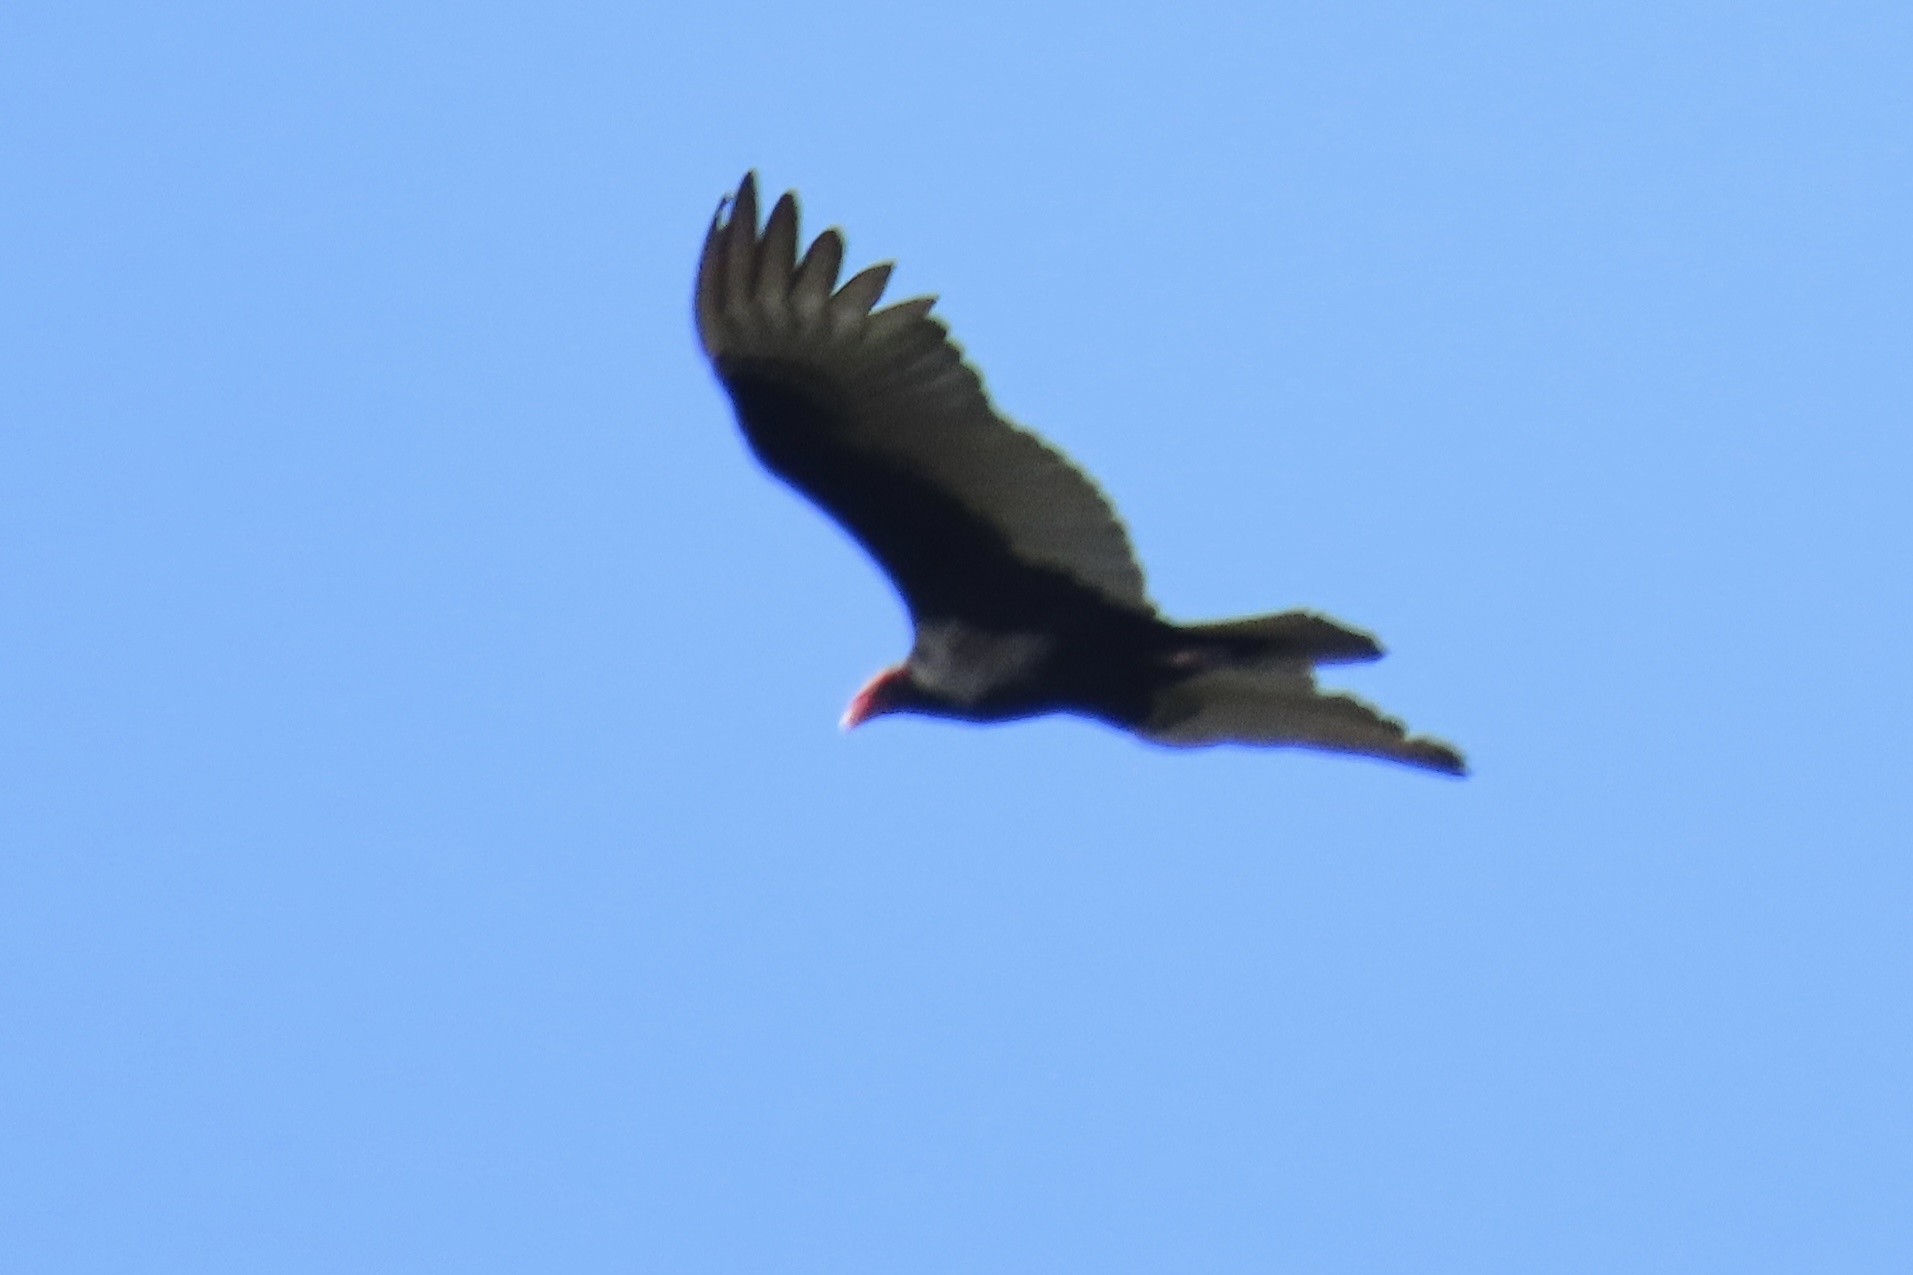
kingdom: Animalia
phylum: Chordata
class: Aves
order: Accipitriformes
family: Cathartidae
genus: Cathartes
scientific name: Cathartes aura
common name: Turkey vulture
